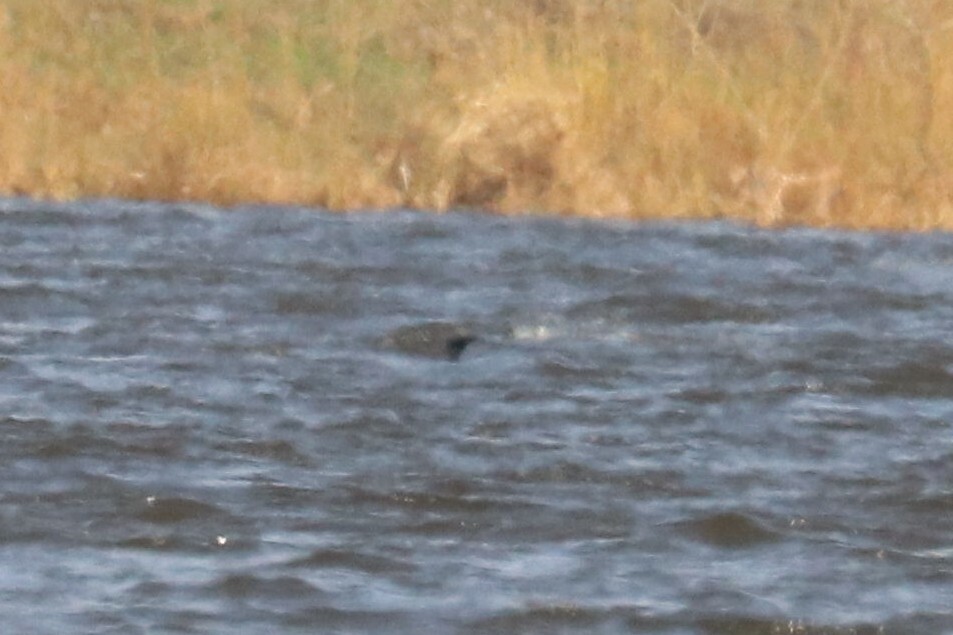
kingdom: Animalia
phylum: Chordata
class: Aves
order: Gaviiformes
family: Gaviidae
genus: Gavia
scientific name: Gavia arctica
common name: Black-throated loon
